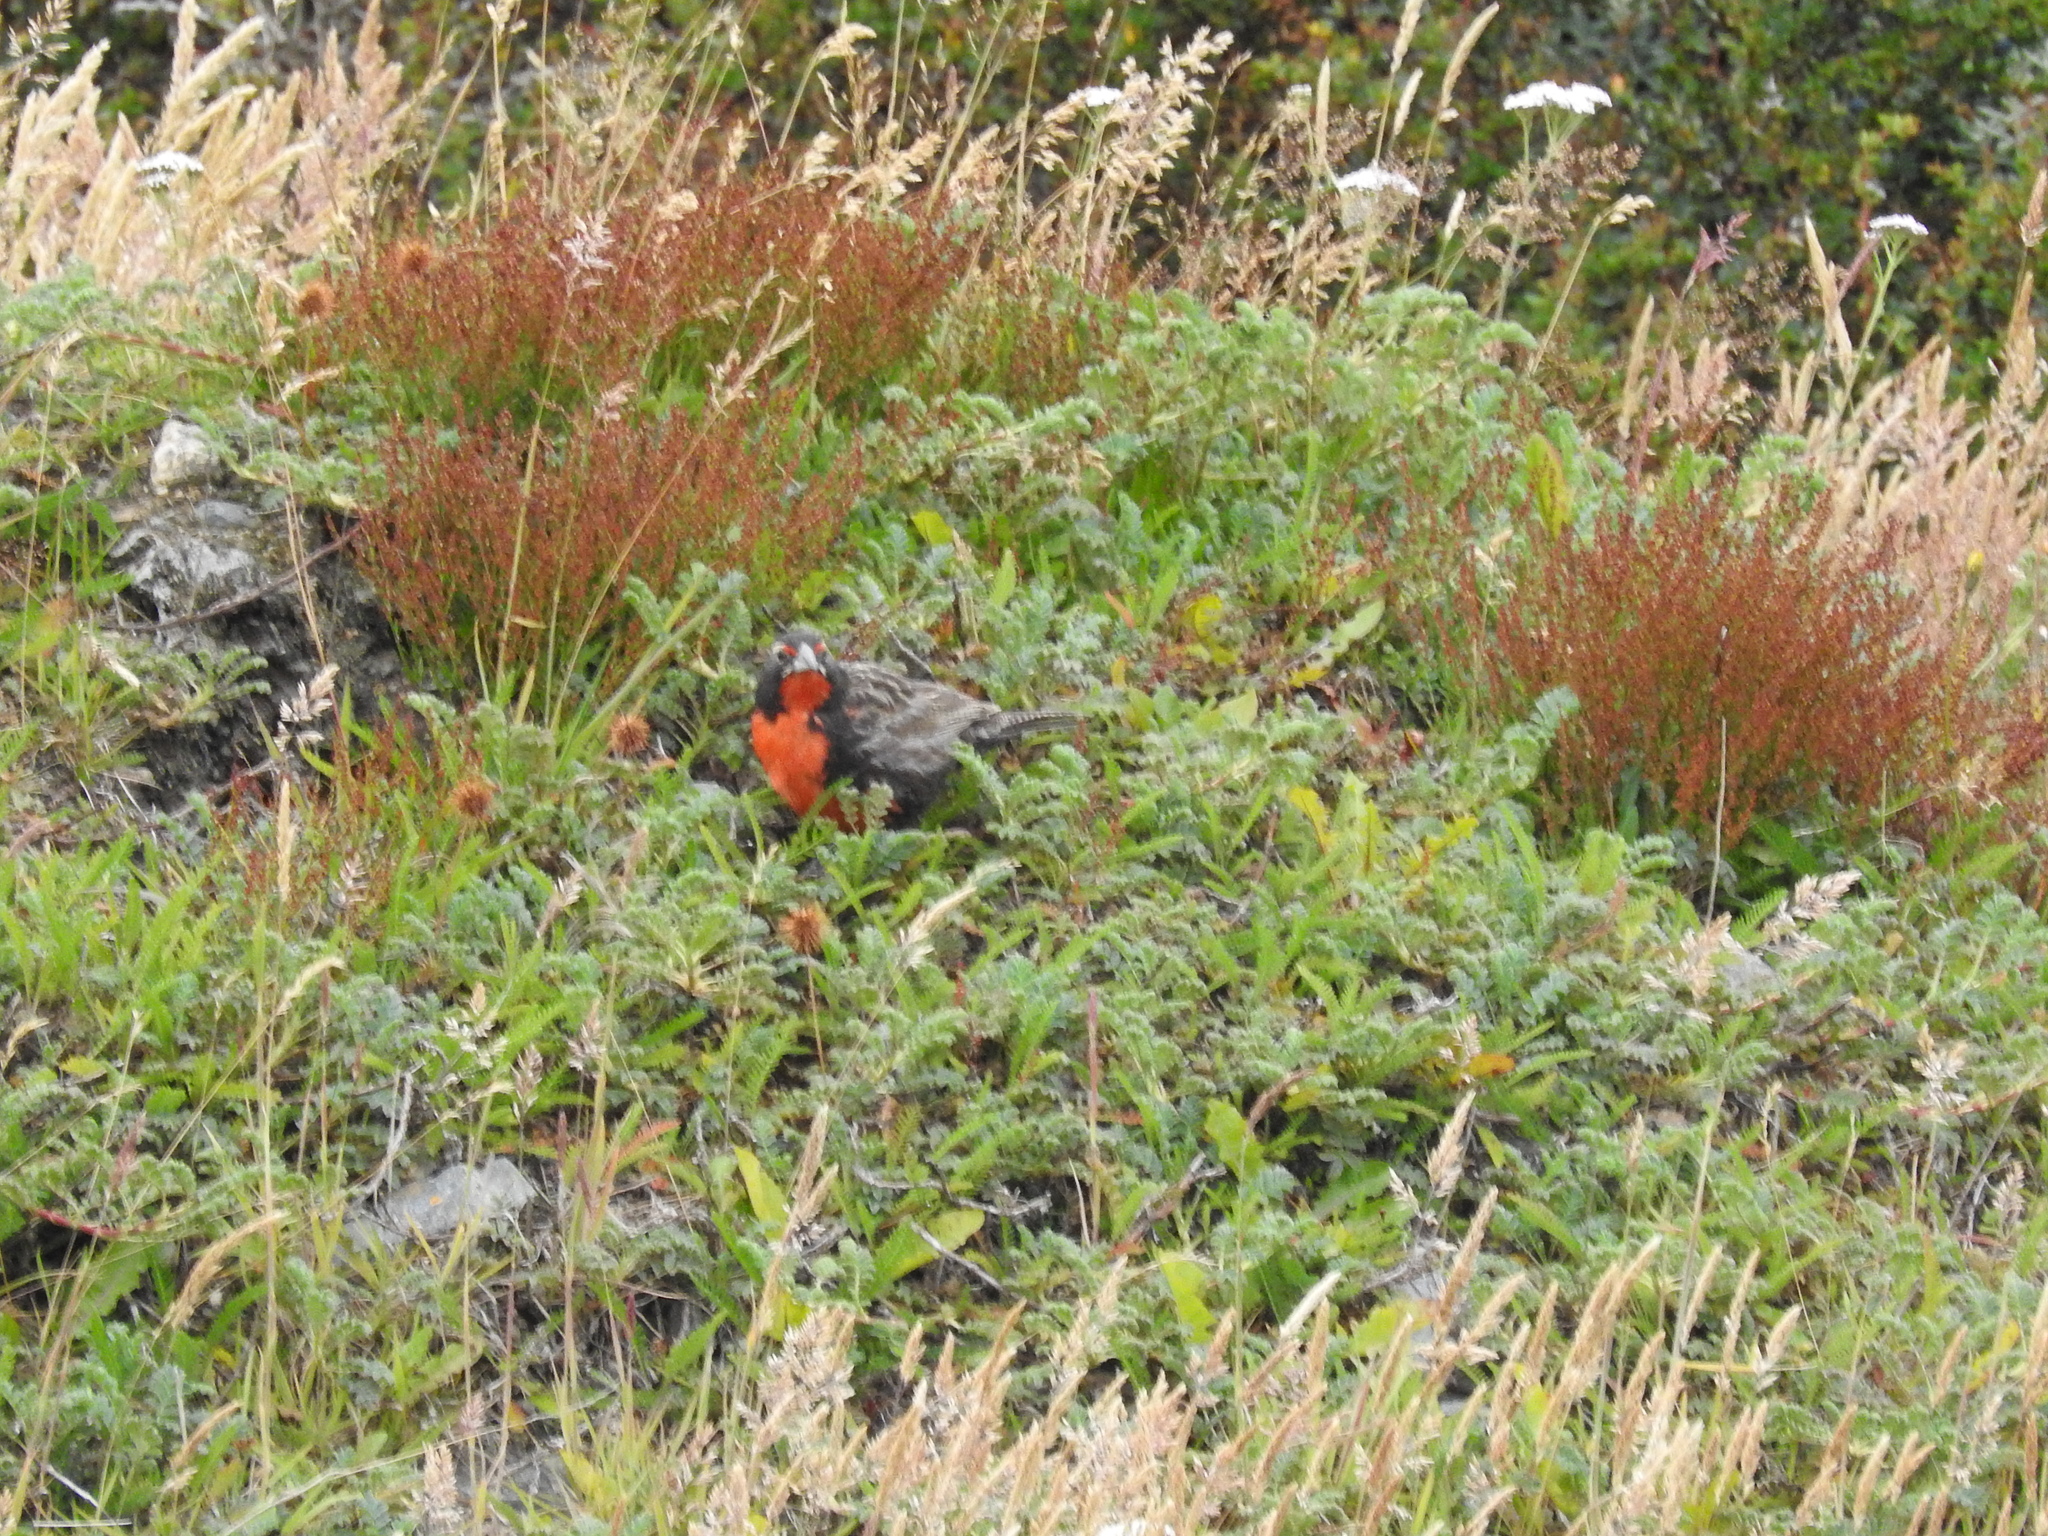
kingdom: Animalia
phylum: Chordata
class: Aves
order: Passeriformes
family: Icteridae
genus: Sturnella
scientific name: Sturnella loyca
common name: Long-tailed meadowlark
